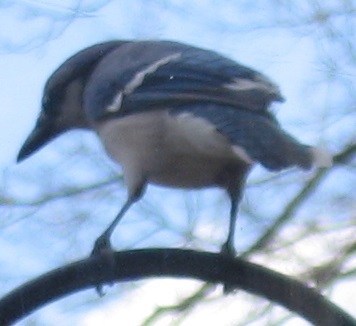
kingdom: Animalia
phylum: Chordata
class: Aves
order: Passeriformes
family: Corvidae
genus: Cyanocitta
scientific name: Cyanocitta cristata
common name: Blue jay
